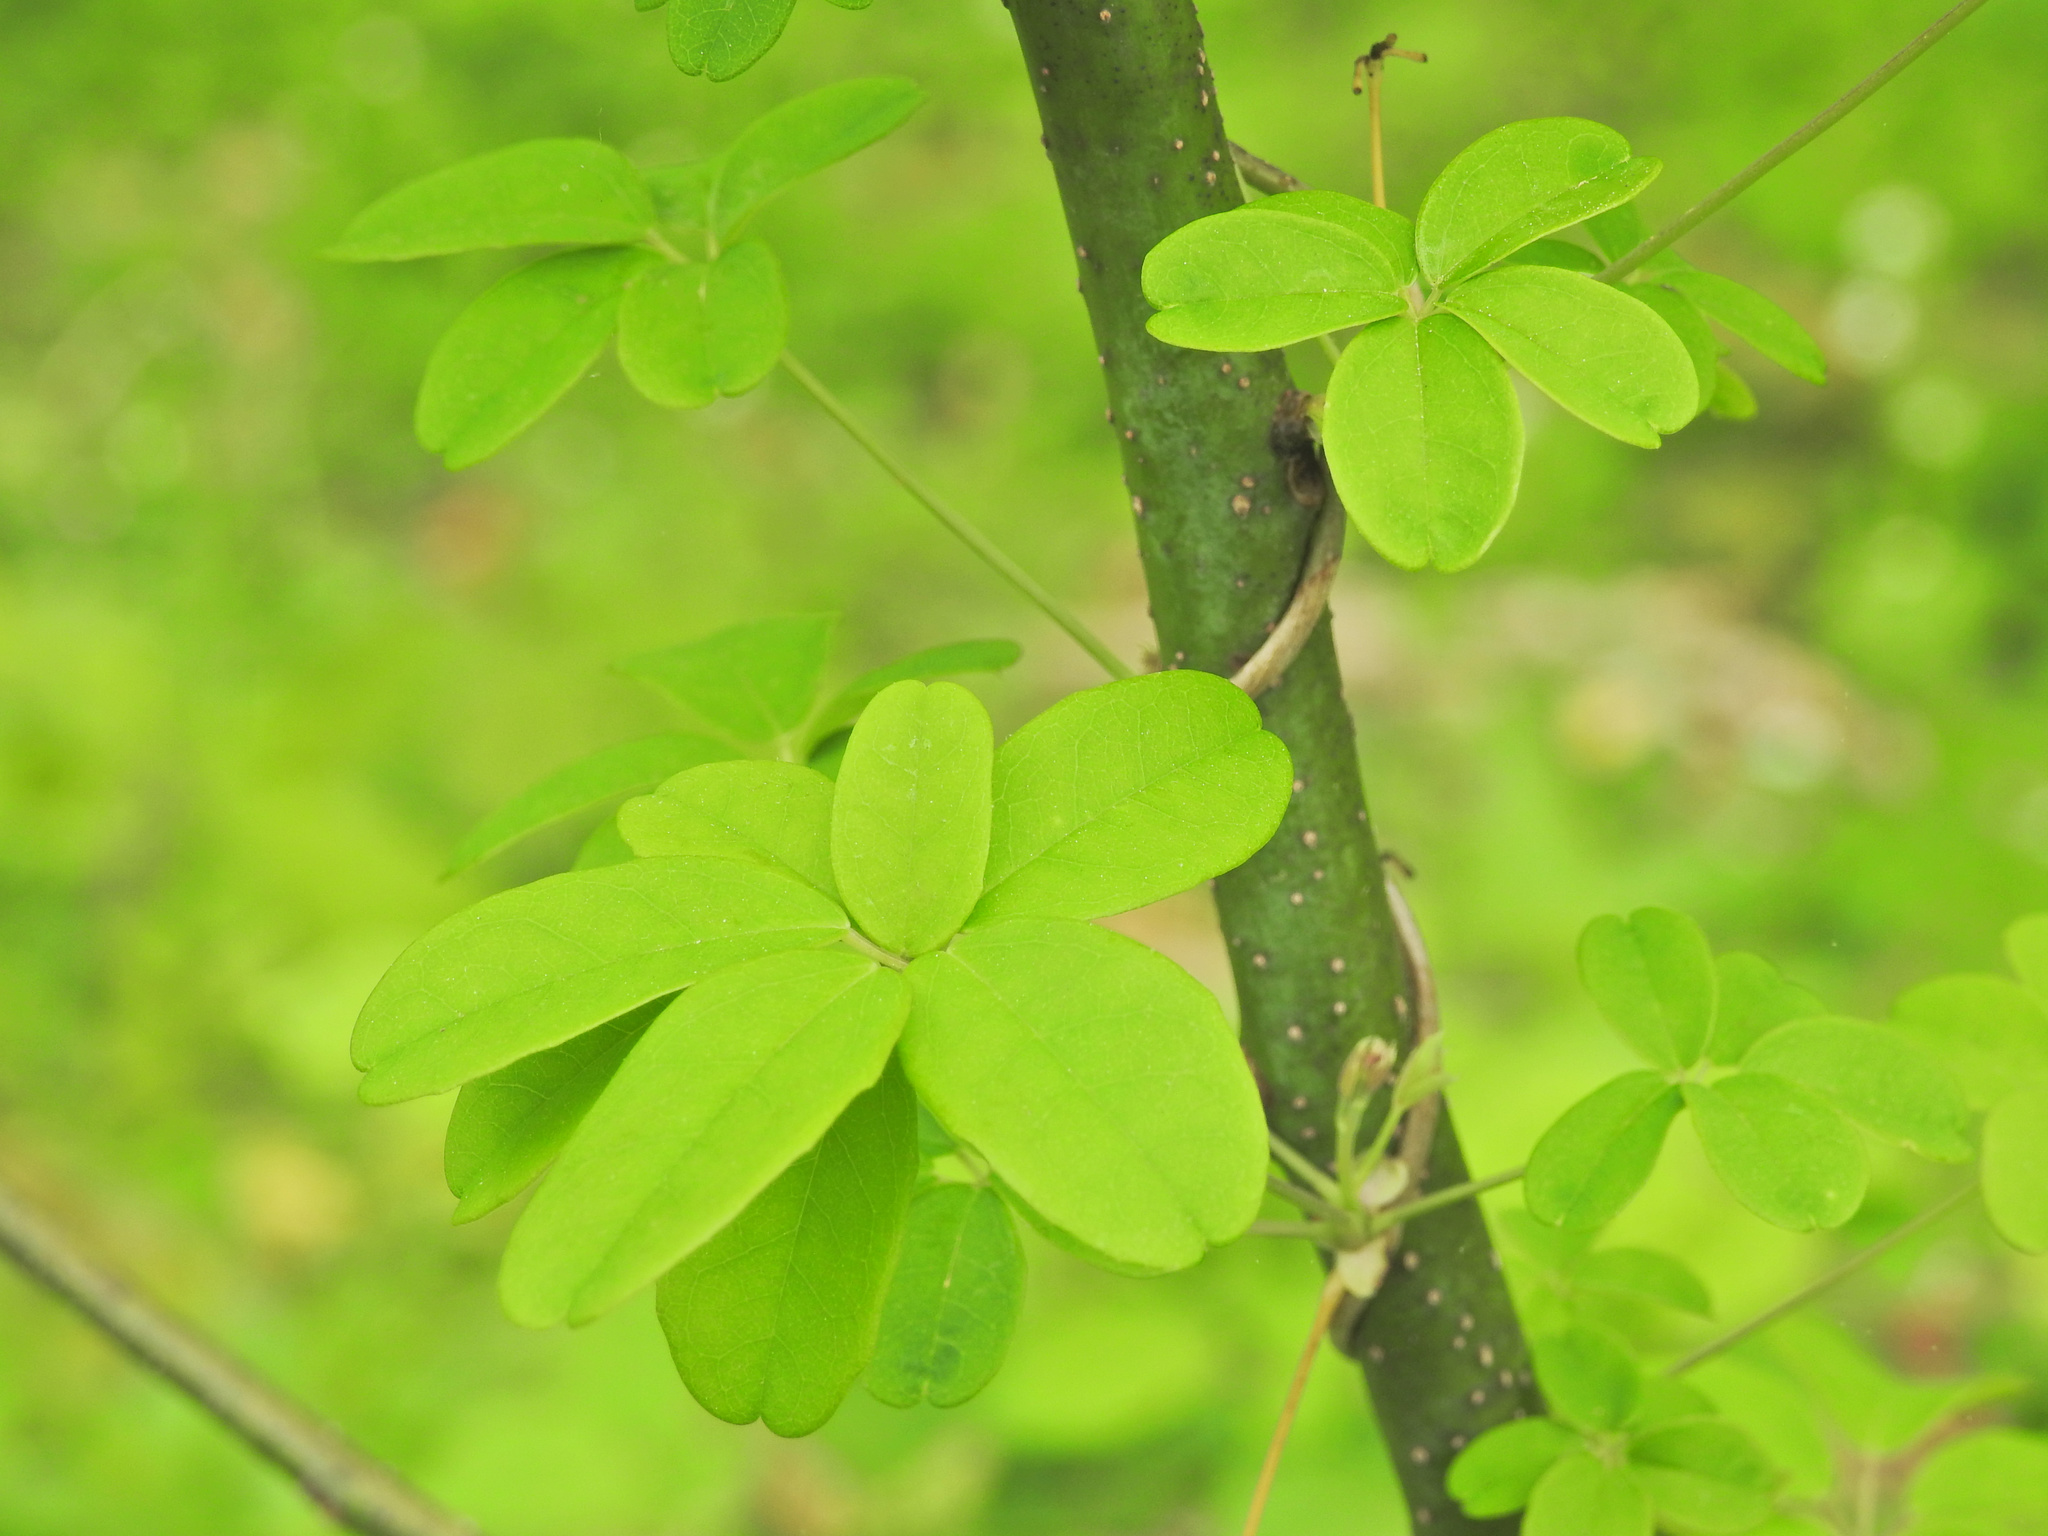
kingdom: Plantae
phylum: Tracheophyta
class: Magnoliopsida
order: Ranunculales
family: Lardizabalaceae
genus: Akebia
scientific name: Akebia quinata
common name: Five-leaf akebia
